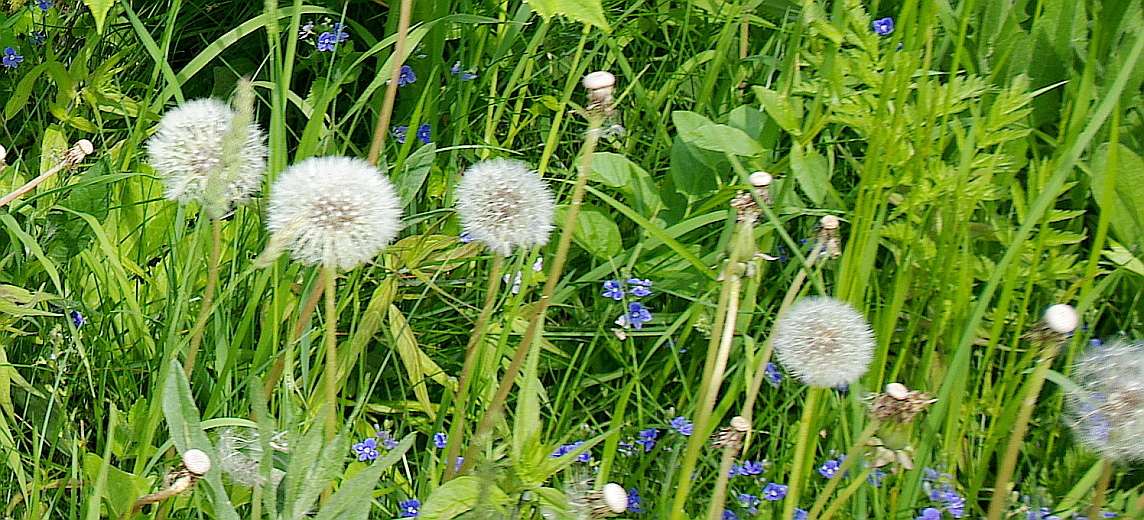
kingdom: Plantae
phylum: Tracheophyta
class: Magnoliopsida
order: Asterales
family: Asteraceae
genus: Taraxacum
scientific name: Taraxacum officinale
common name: Common dandelion
